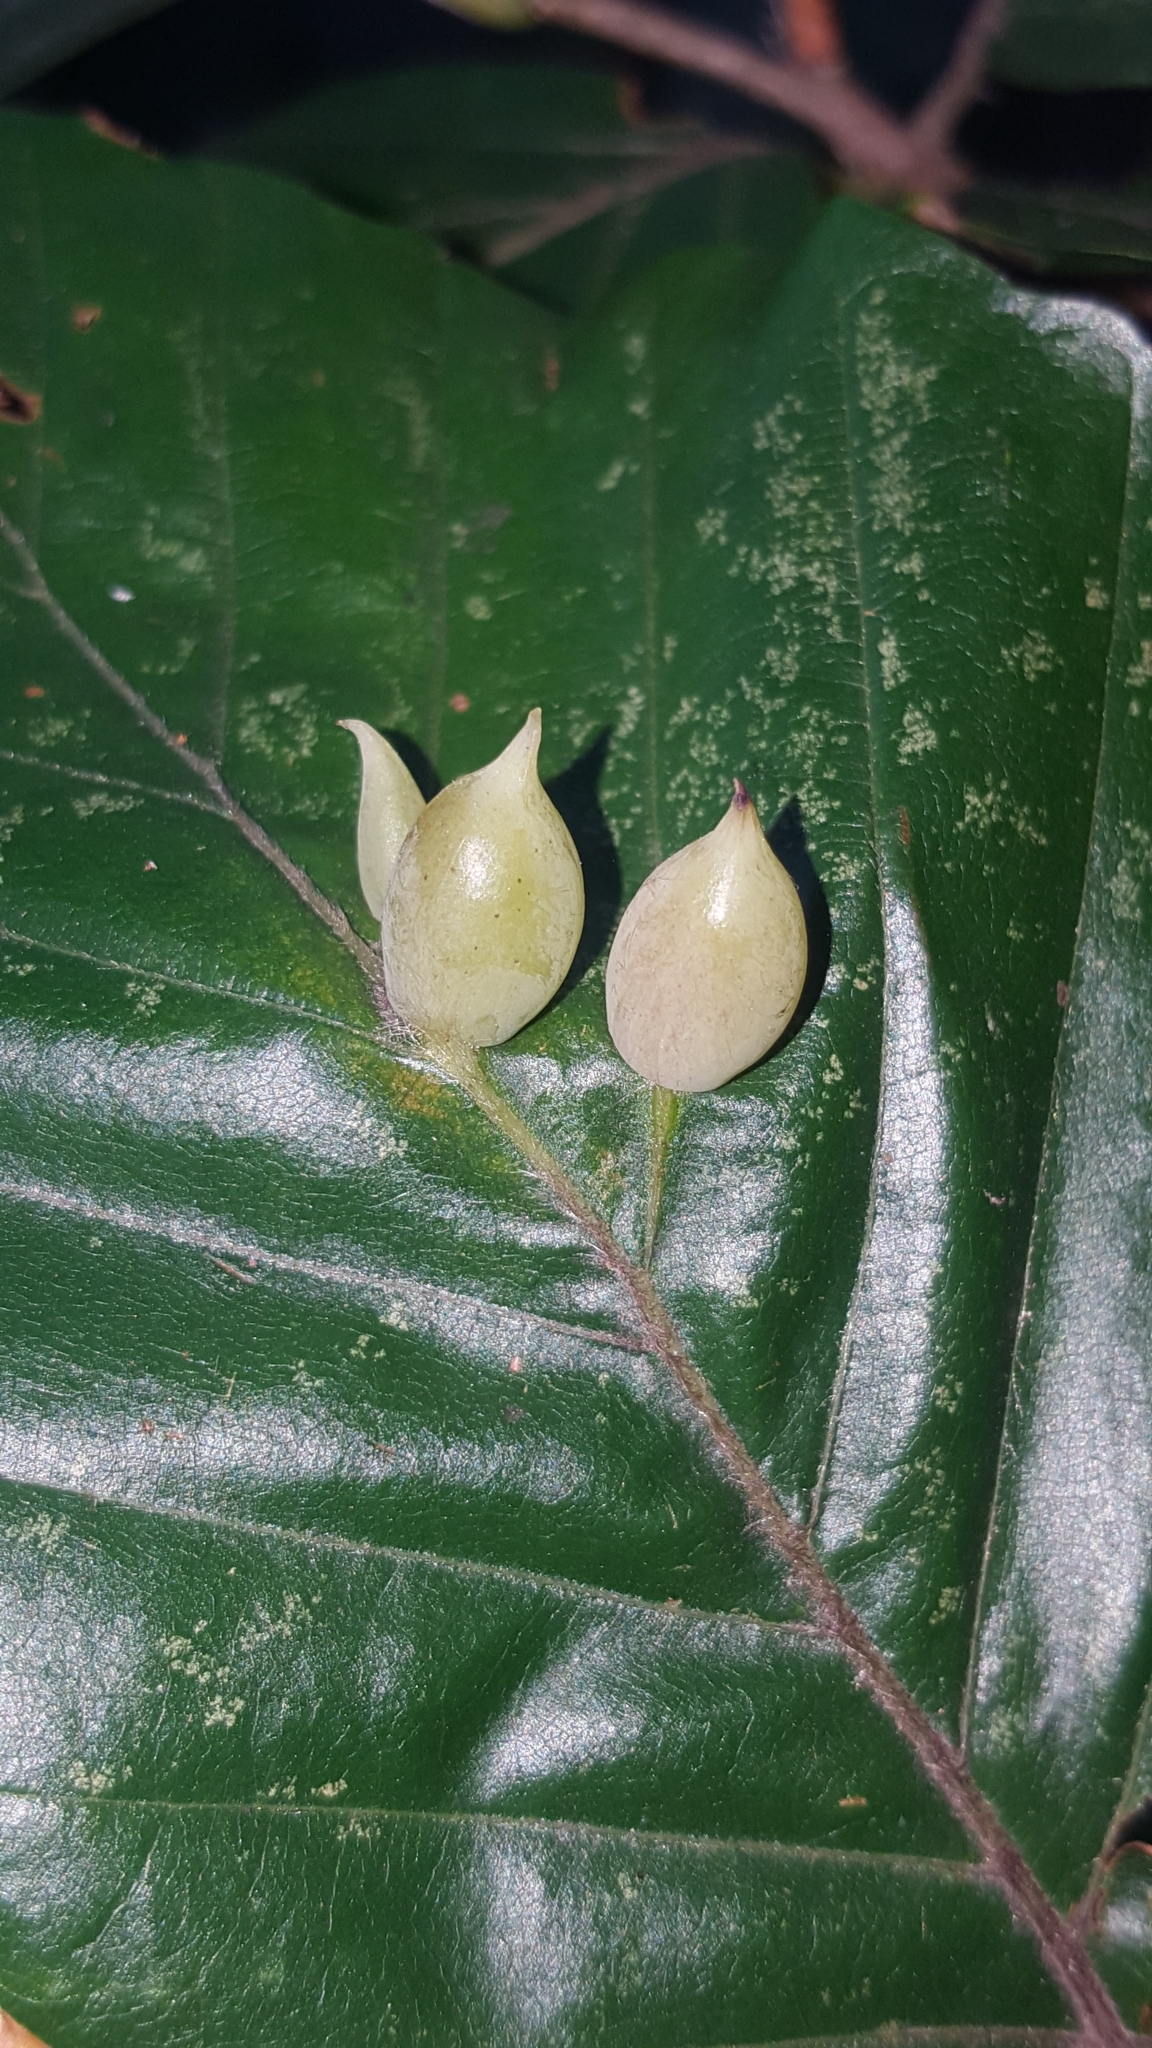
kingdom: Animalia
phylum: Arthropoda
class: Insecta
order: Diptera
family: Cecidomyiidae
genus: Mikiola
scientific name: Mikiola fagi
